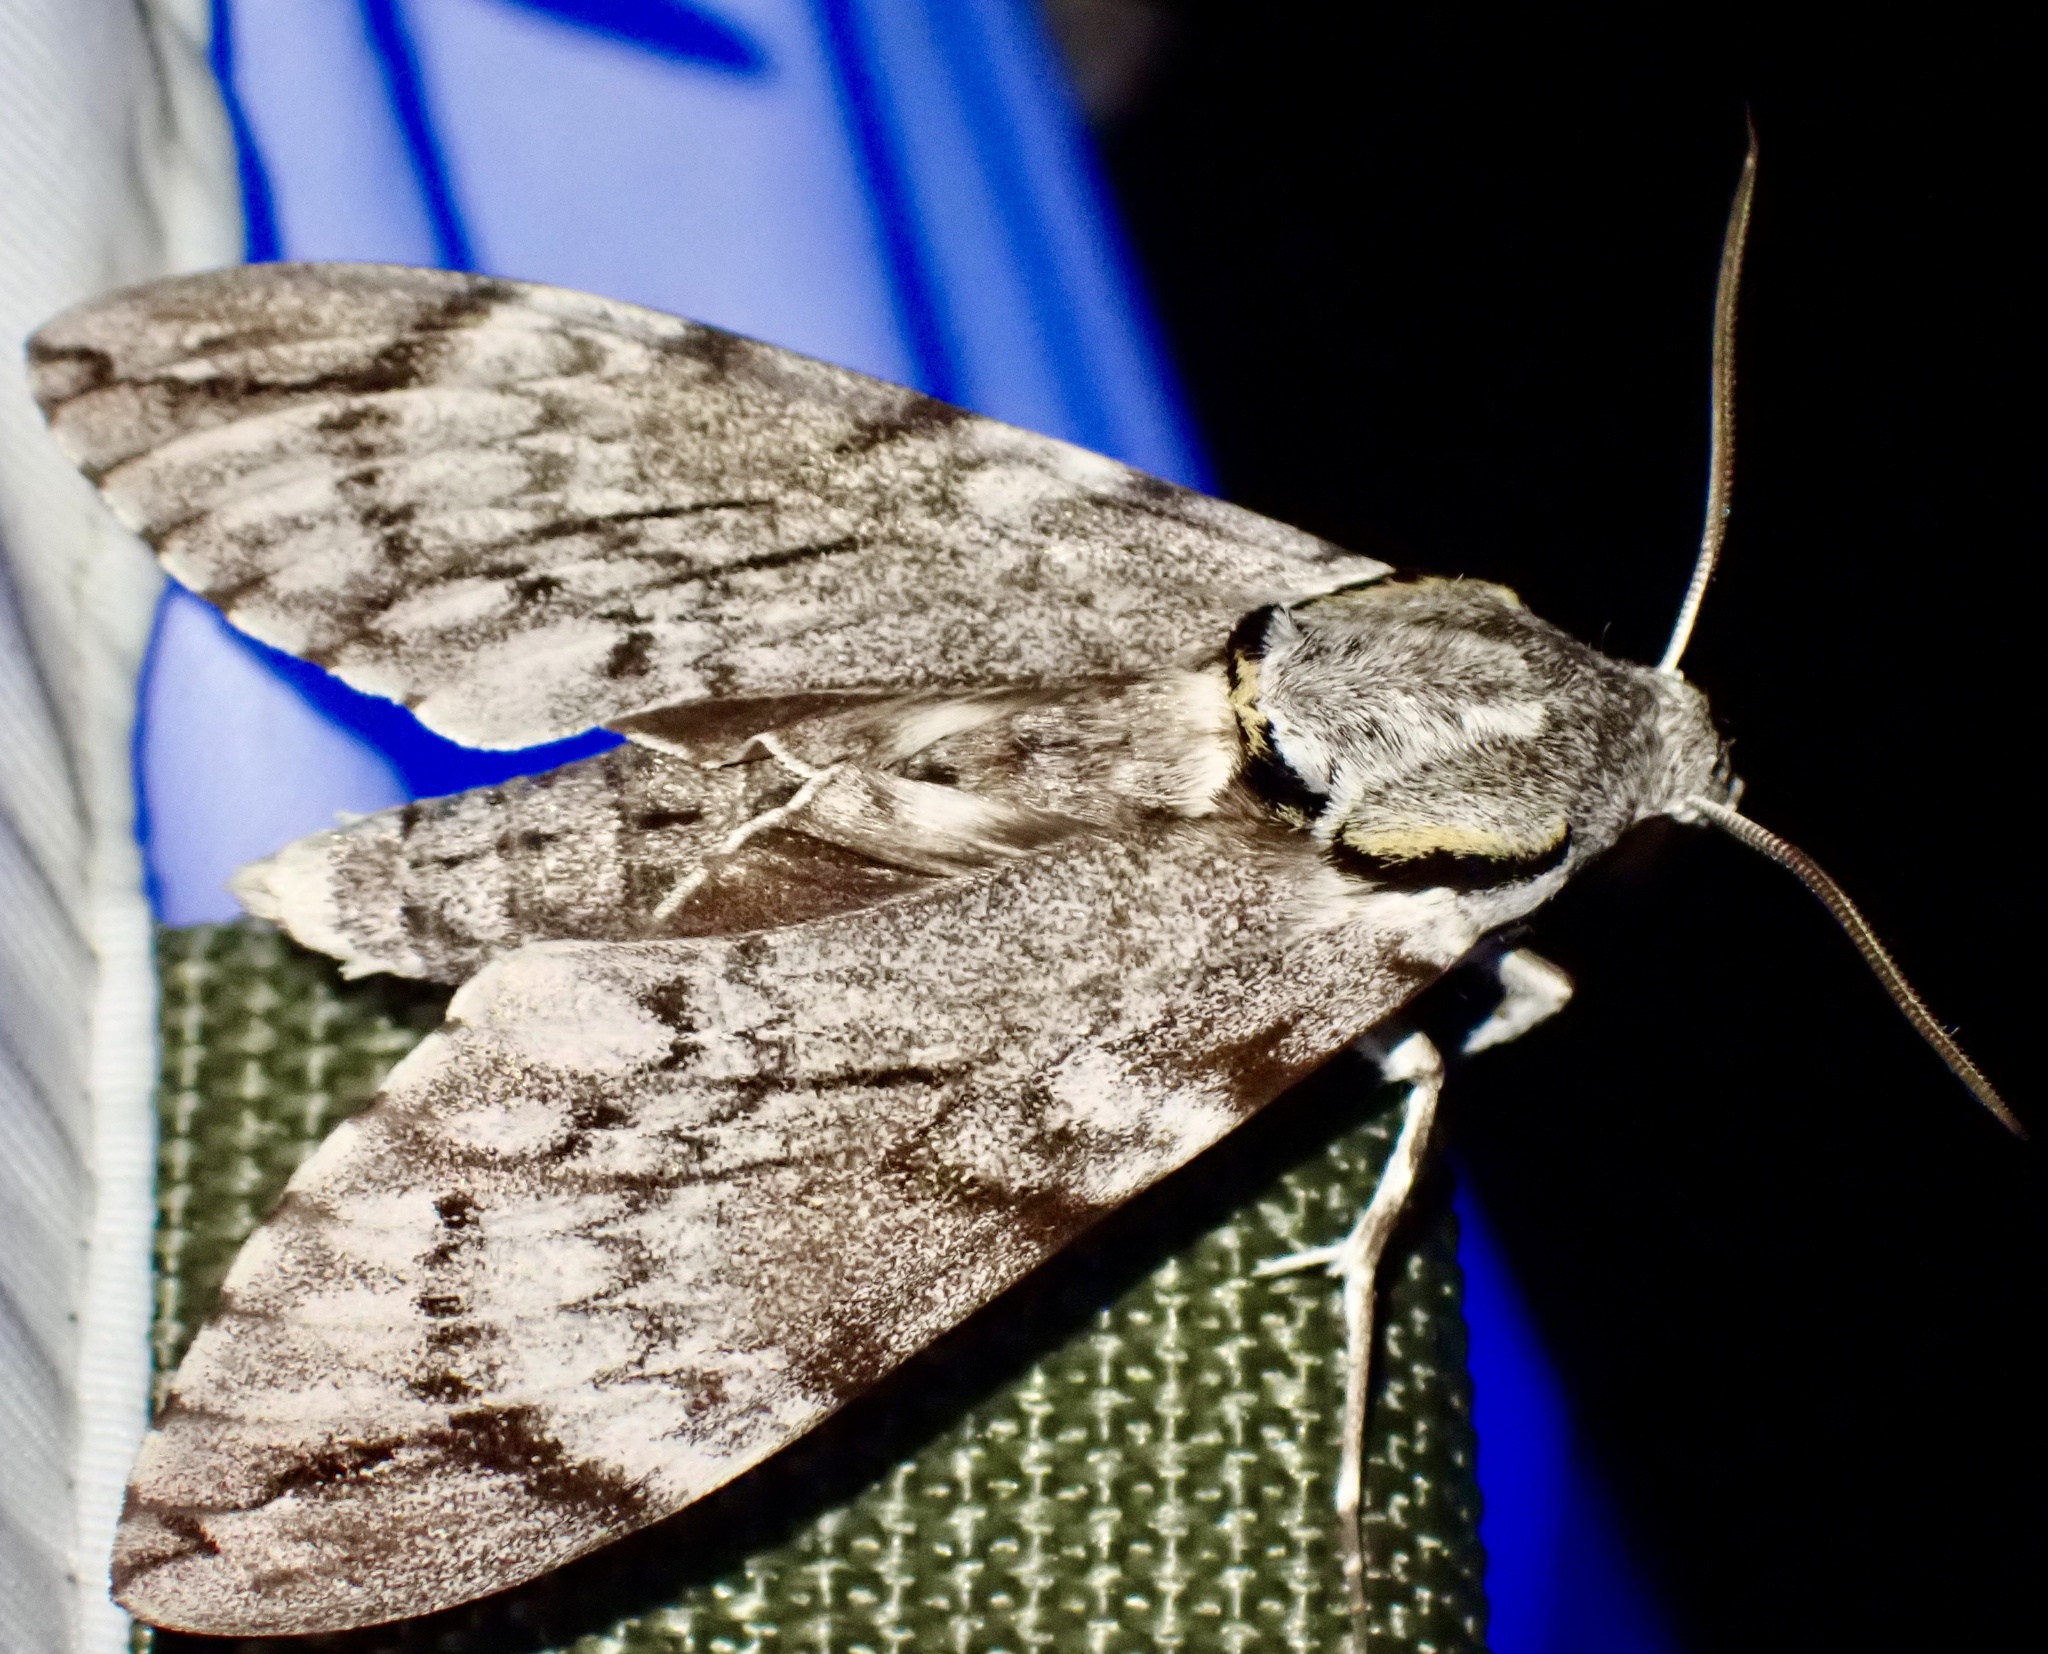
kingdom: Animalia
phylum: Arthropoda
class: Insecta
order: Lepidoptera
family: Sphingidae
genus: Psilogramma
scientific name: Psilogramma papuensis
